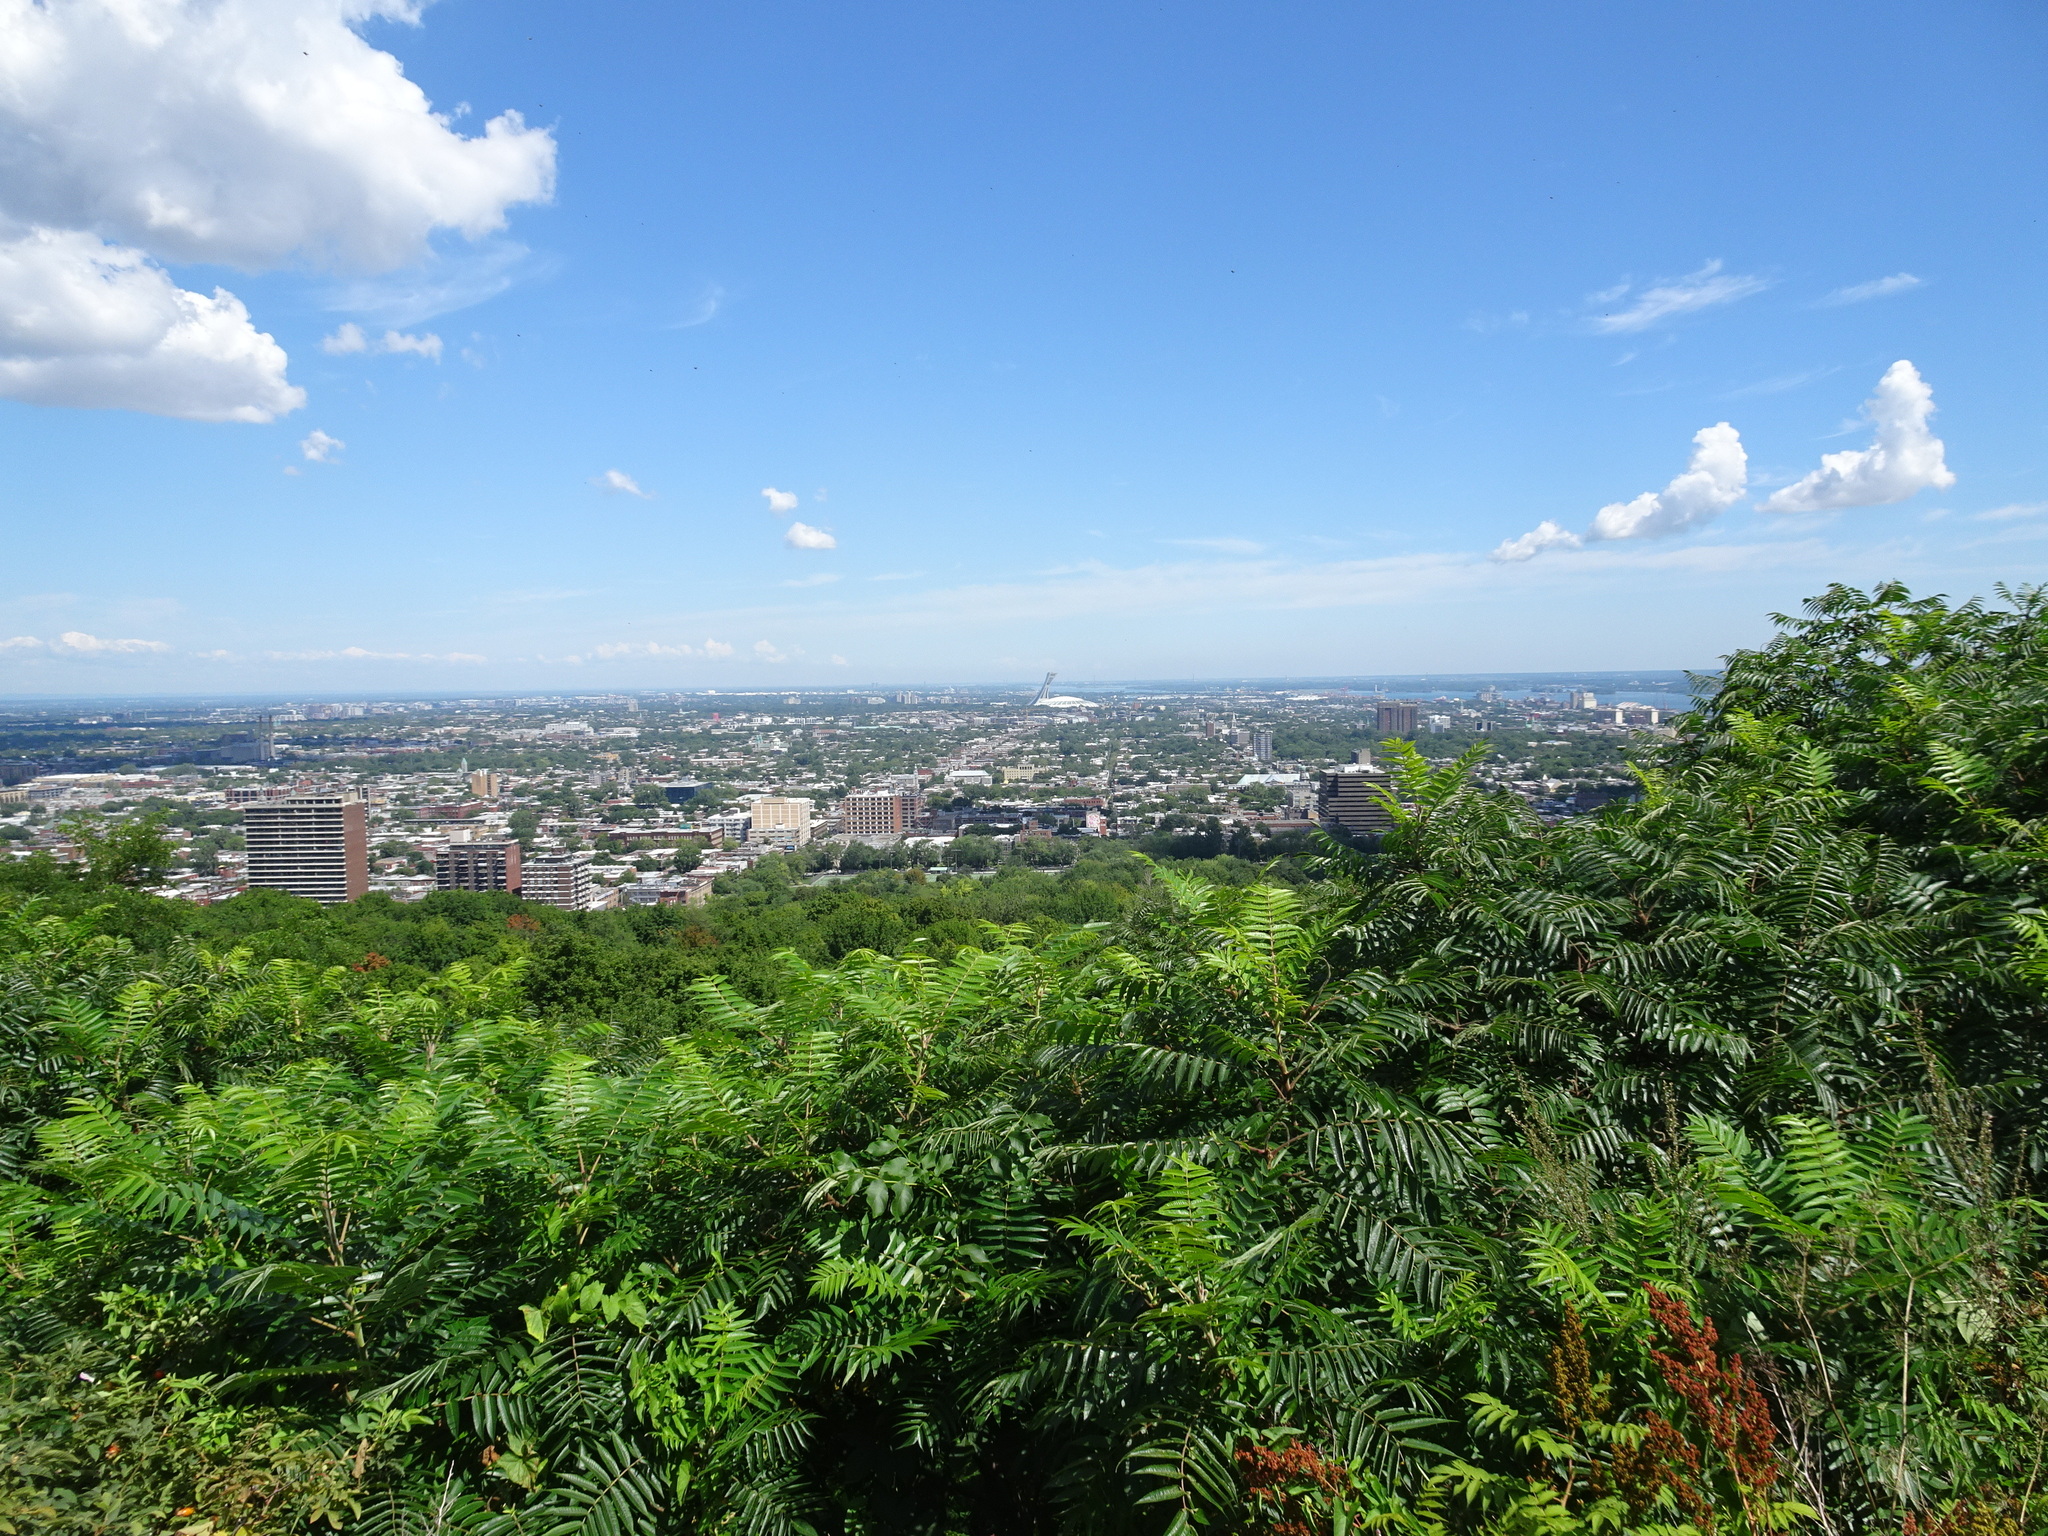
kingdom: Plantae
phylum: Tracheophyta
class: Magnoliopsida
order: Sapindales
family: Anacardiaceae
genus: Rhus
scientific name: Rhus typhina
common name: Staghorn sumac
